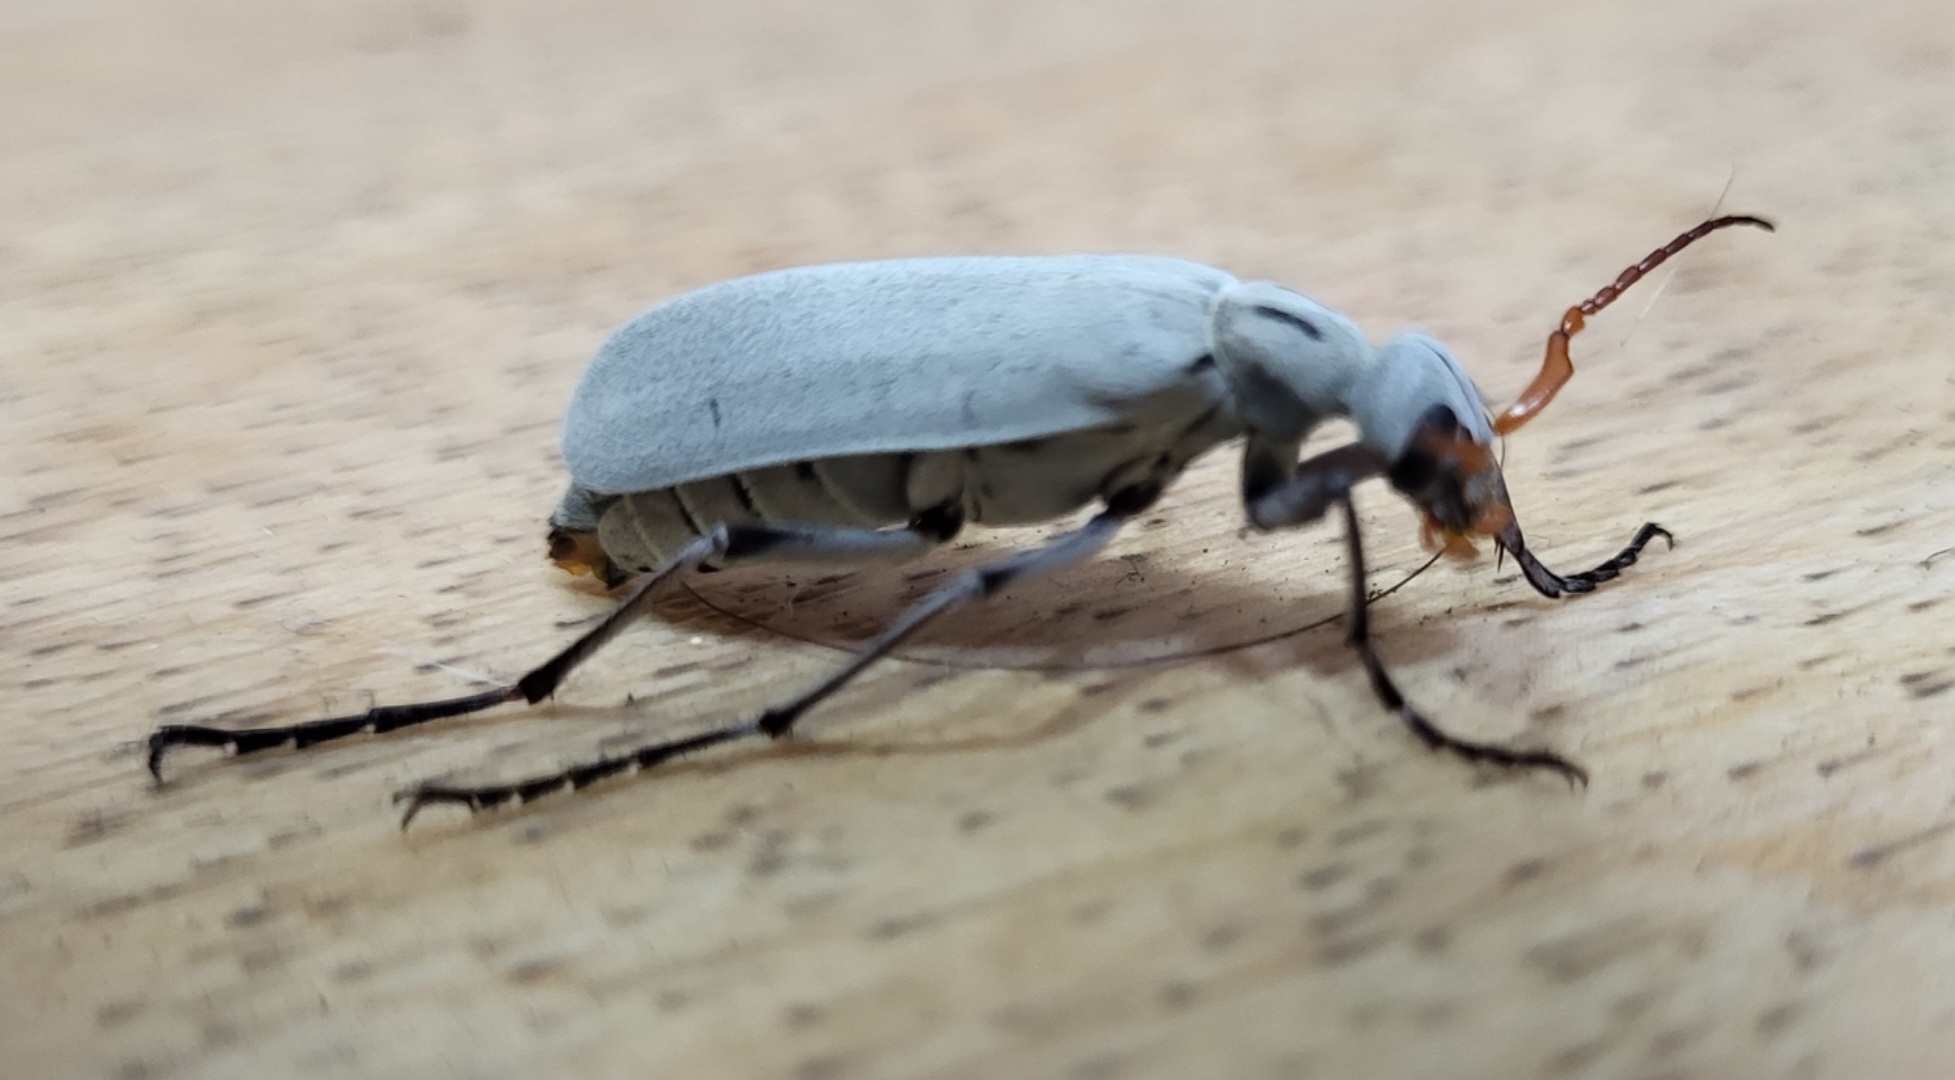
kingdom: Animalia
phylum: Arthropoda
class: Insecta
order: Coleoptera
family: Meloidae
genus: Epicauta
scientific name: Epicauta albida
